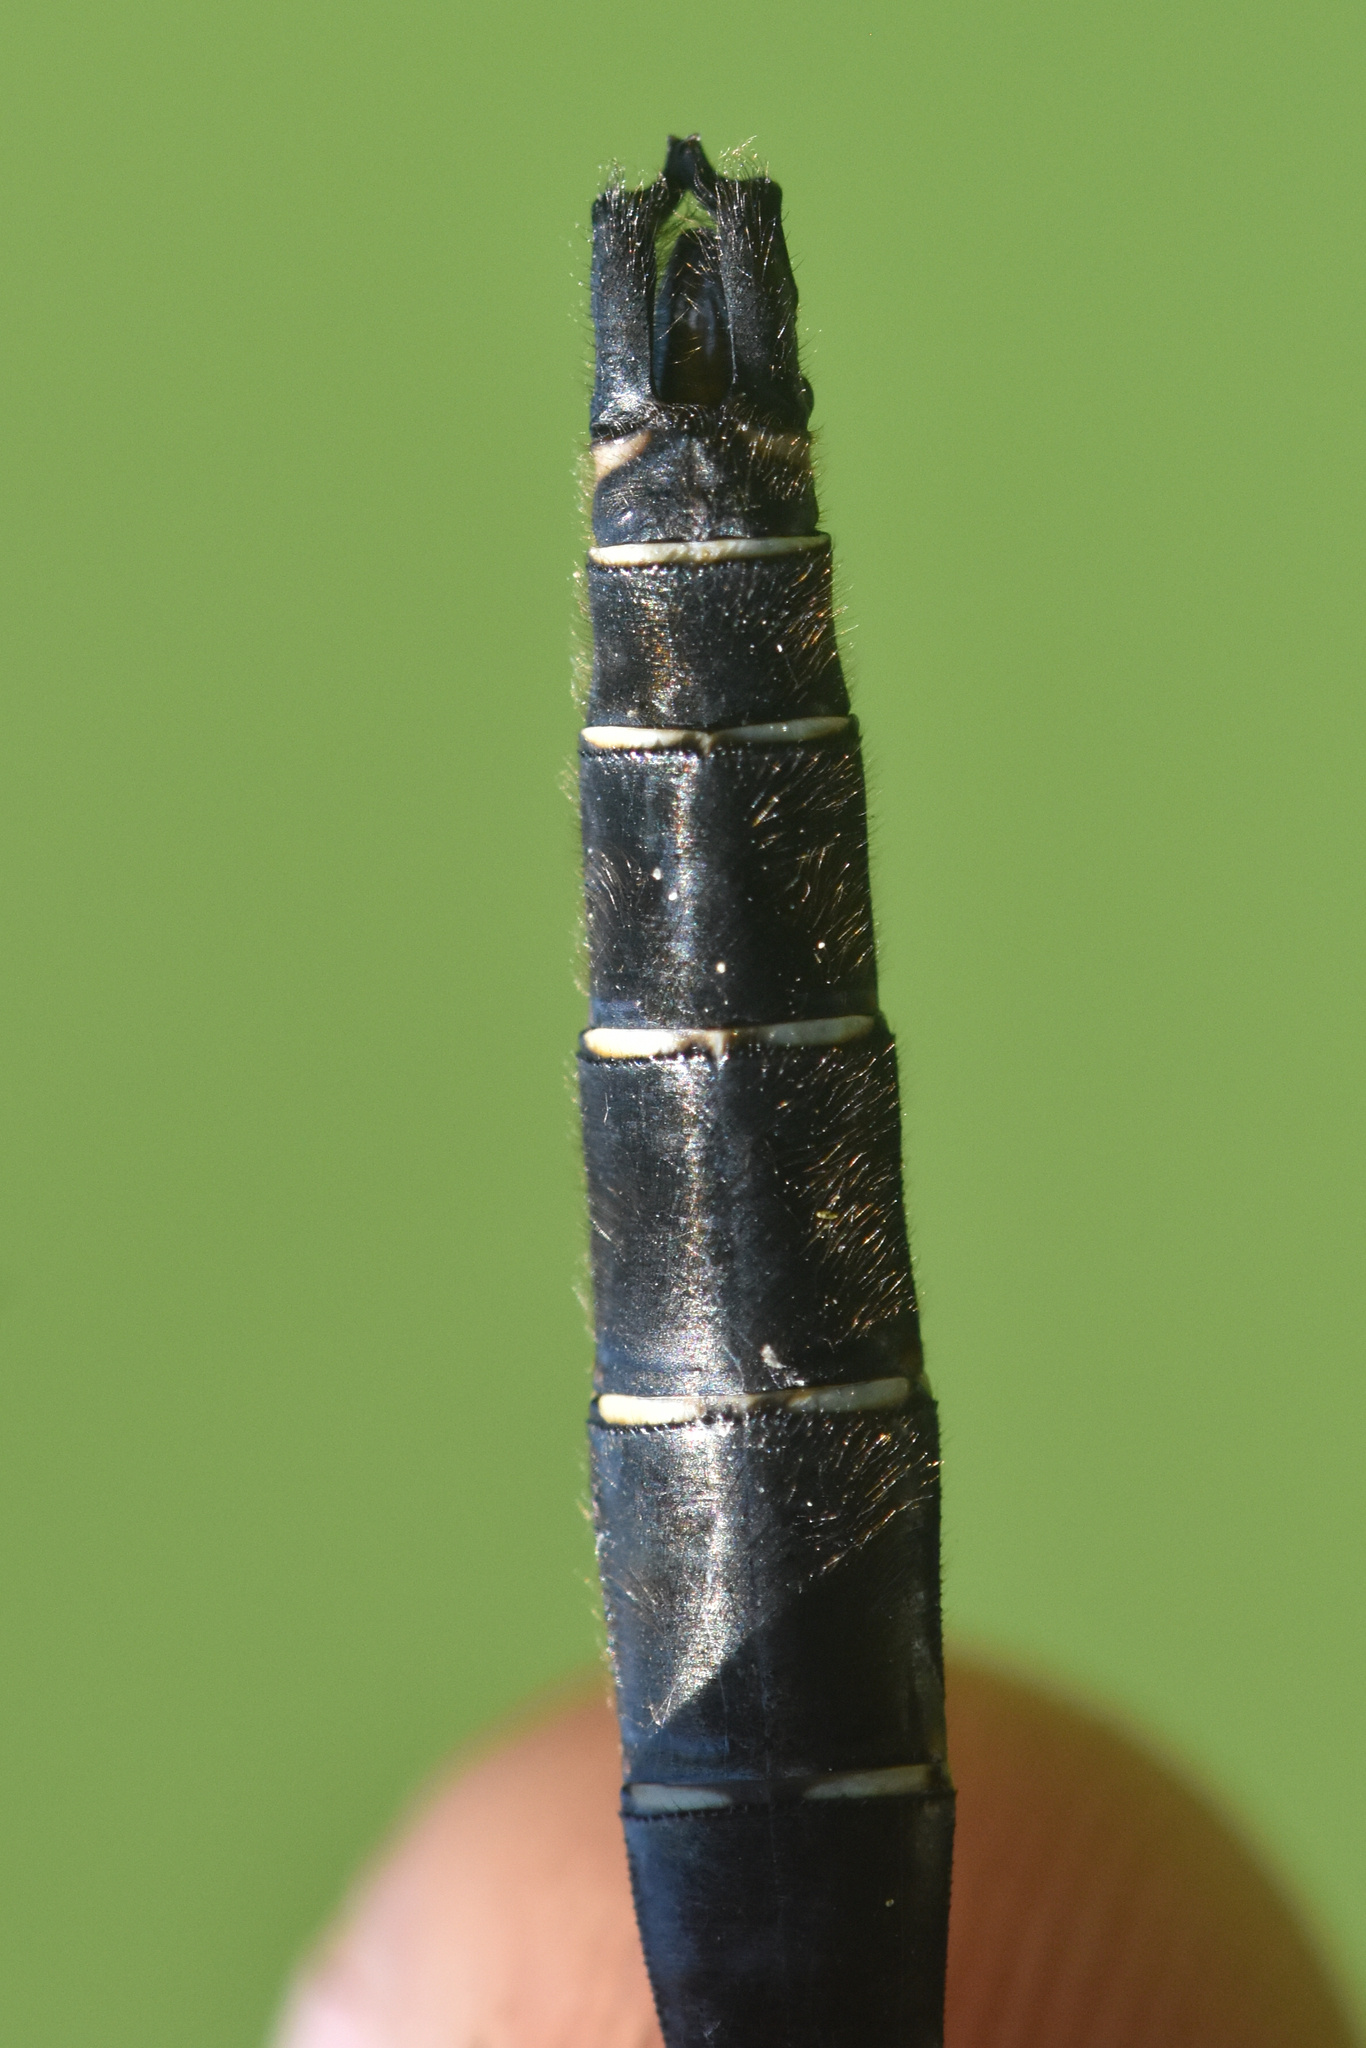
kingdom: Animalia
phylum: Arthropoda
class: Insecta
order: Odonata
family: Corduliidae
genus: Somatochlora
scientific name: Somatochlora albicincta
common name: Ringed emerald
